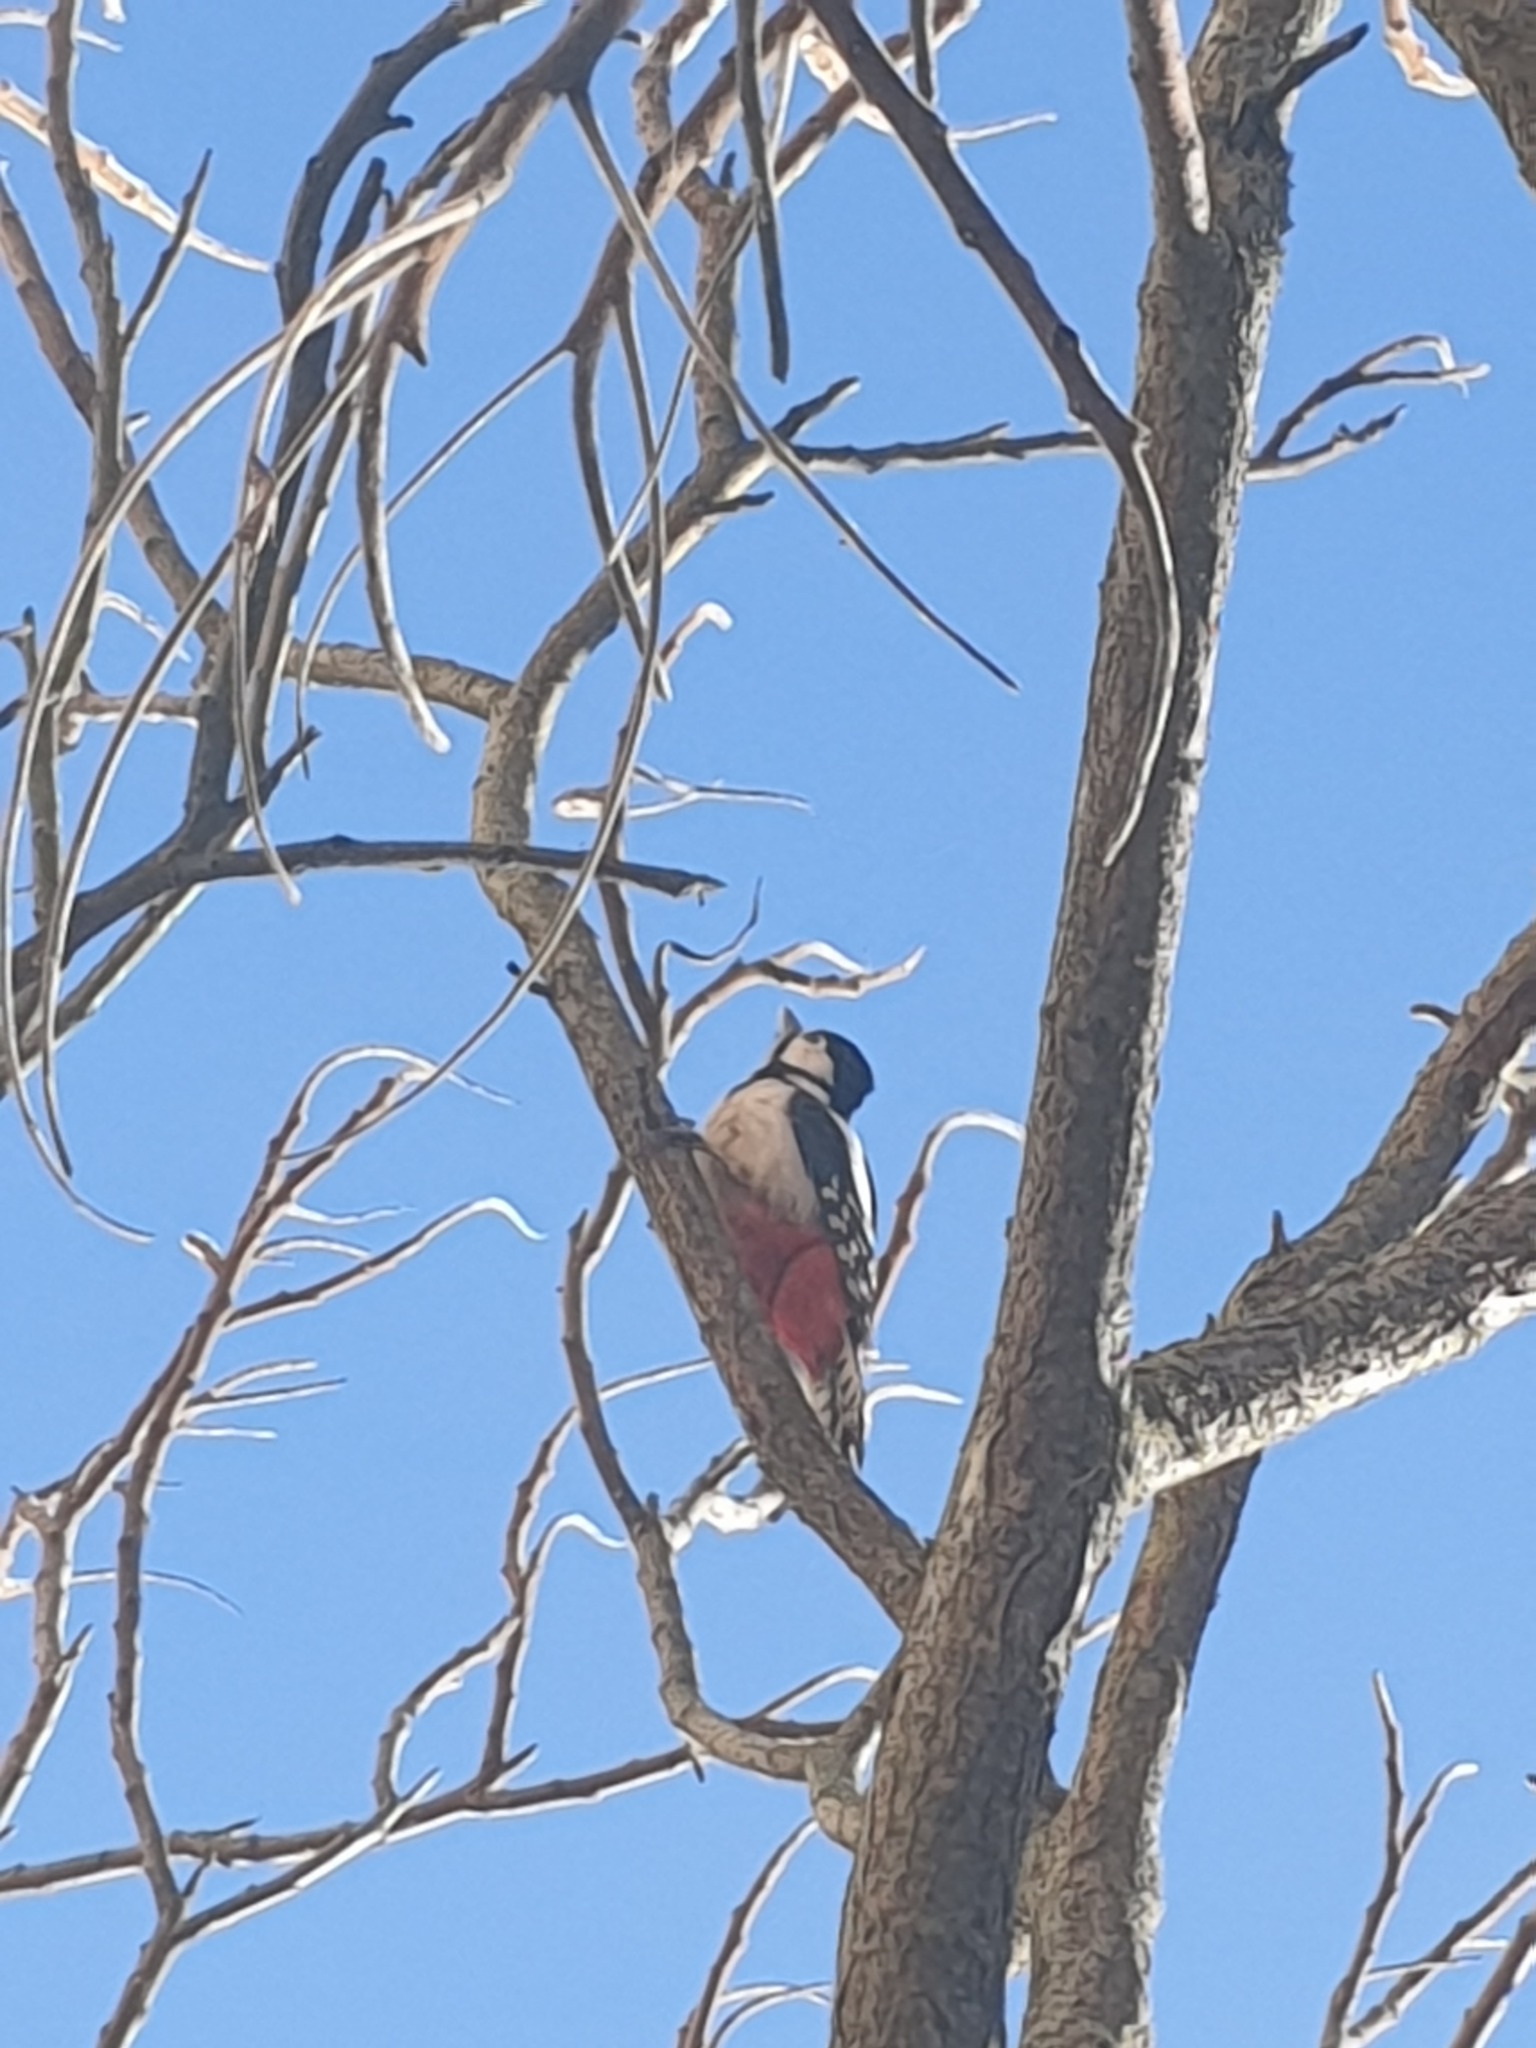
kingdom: Animalia
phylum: Chordata
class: Aves
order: Piciformes
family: Picidae
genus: Dendrocopos
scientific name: Dendrocopos major
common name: Great spotted woodpecker
